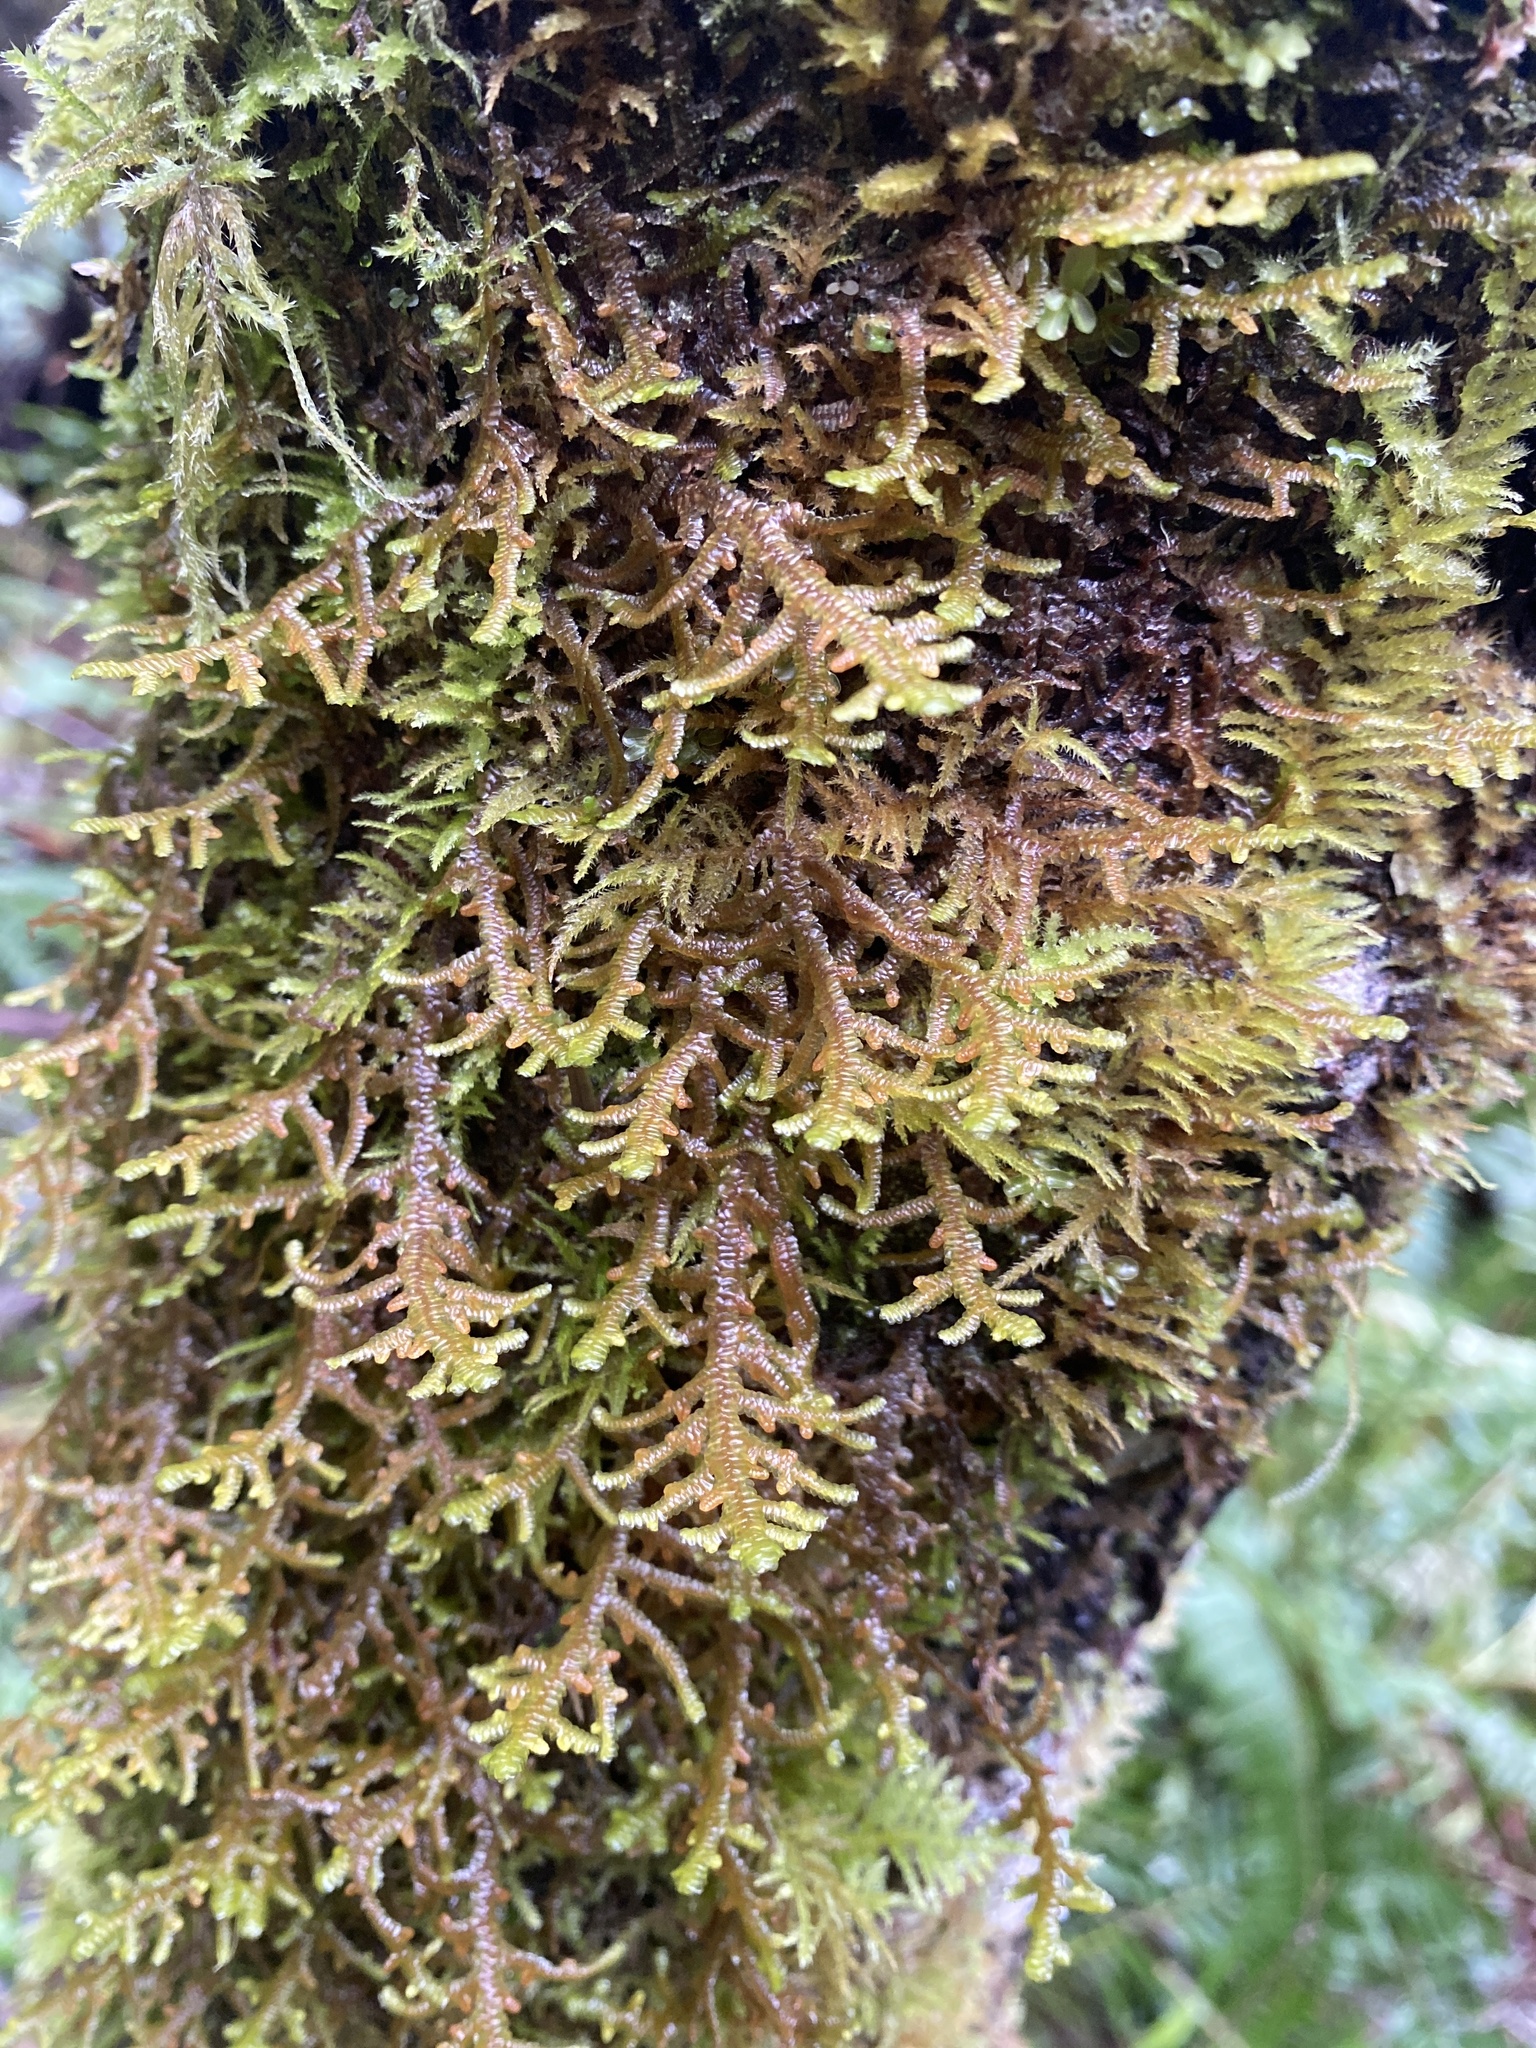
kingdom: Plantae
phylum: Marchantiophyta
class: Jungermanniopsida
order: Porellales
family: Porellaceae
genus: Porella
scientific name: Porella navicularis
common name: Tree ruffle liverwort
